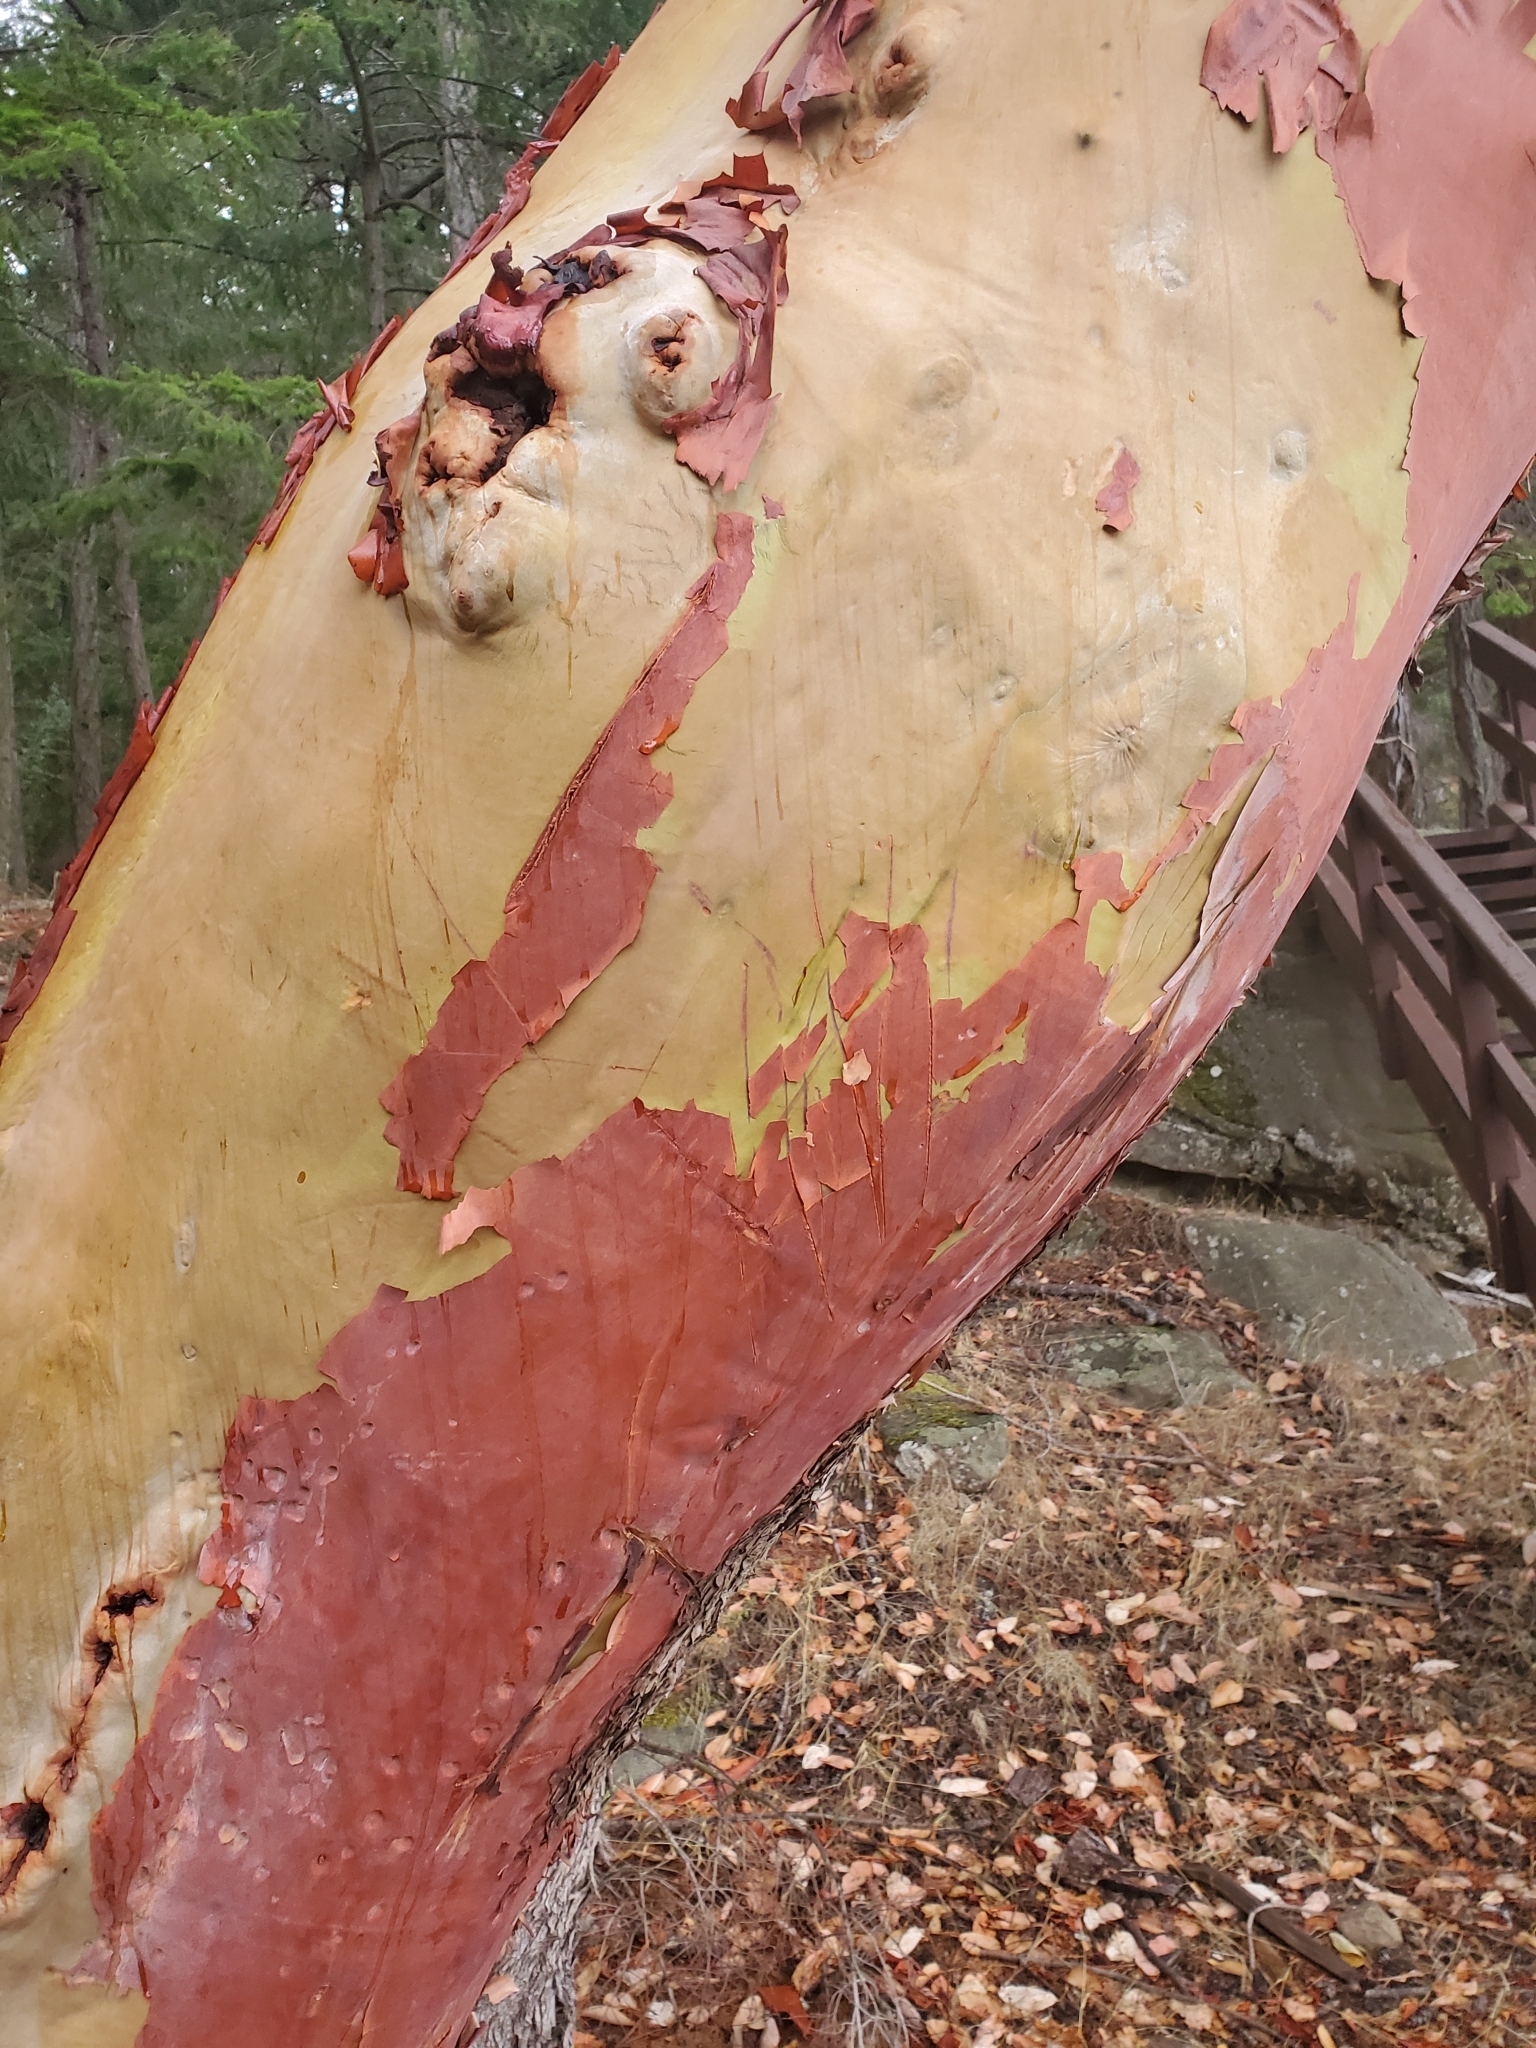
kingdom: Plantae
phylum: Tracheophyta
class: Magnoliopsida
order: Ericales
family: Ericaceae
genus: Arbutus
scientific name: Arbutus menziesii
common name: Pacific madrone
